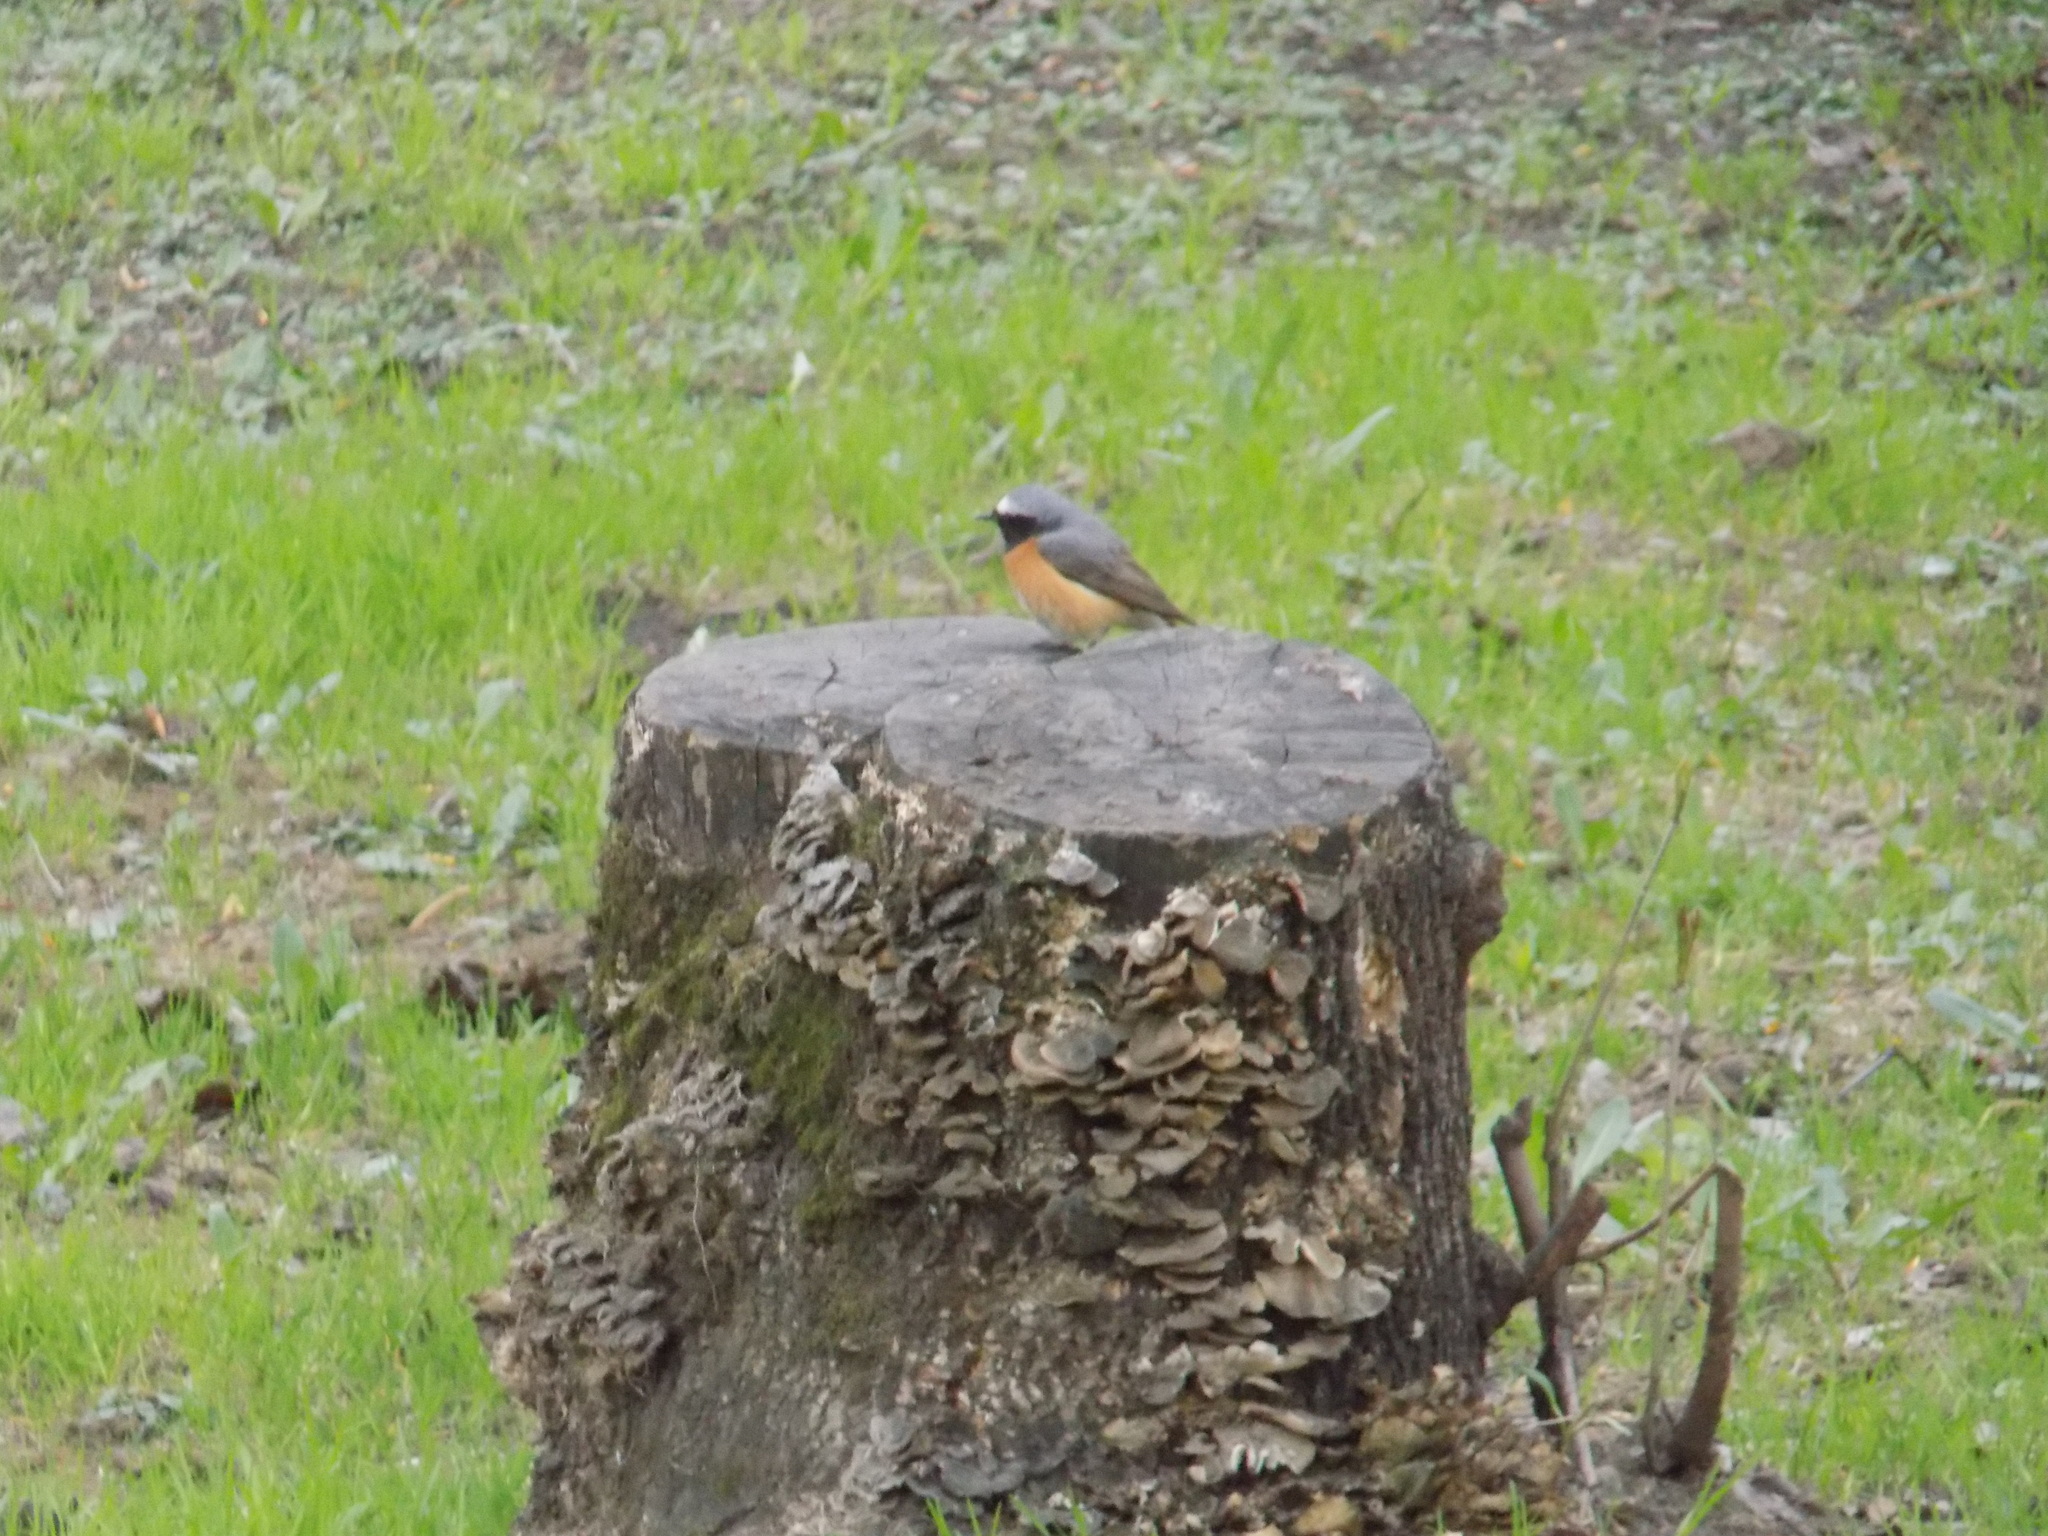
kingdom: Animalia
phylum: Chordata
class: Aves
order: Passeriformes
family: Muscicapidae
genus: Phoenicurus
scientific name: Phoenicurus phoenicurus
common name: Common redstart
